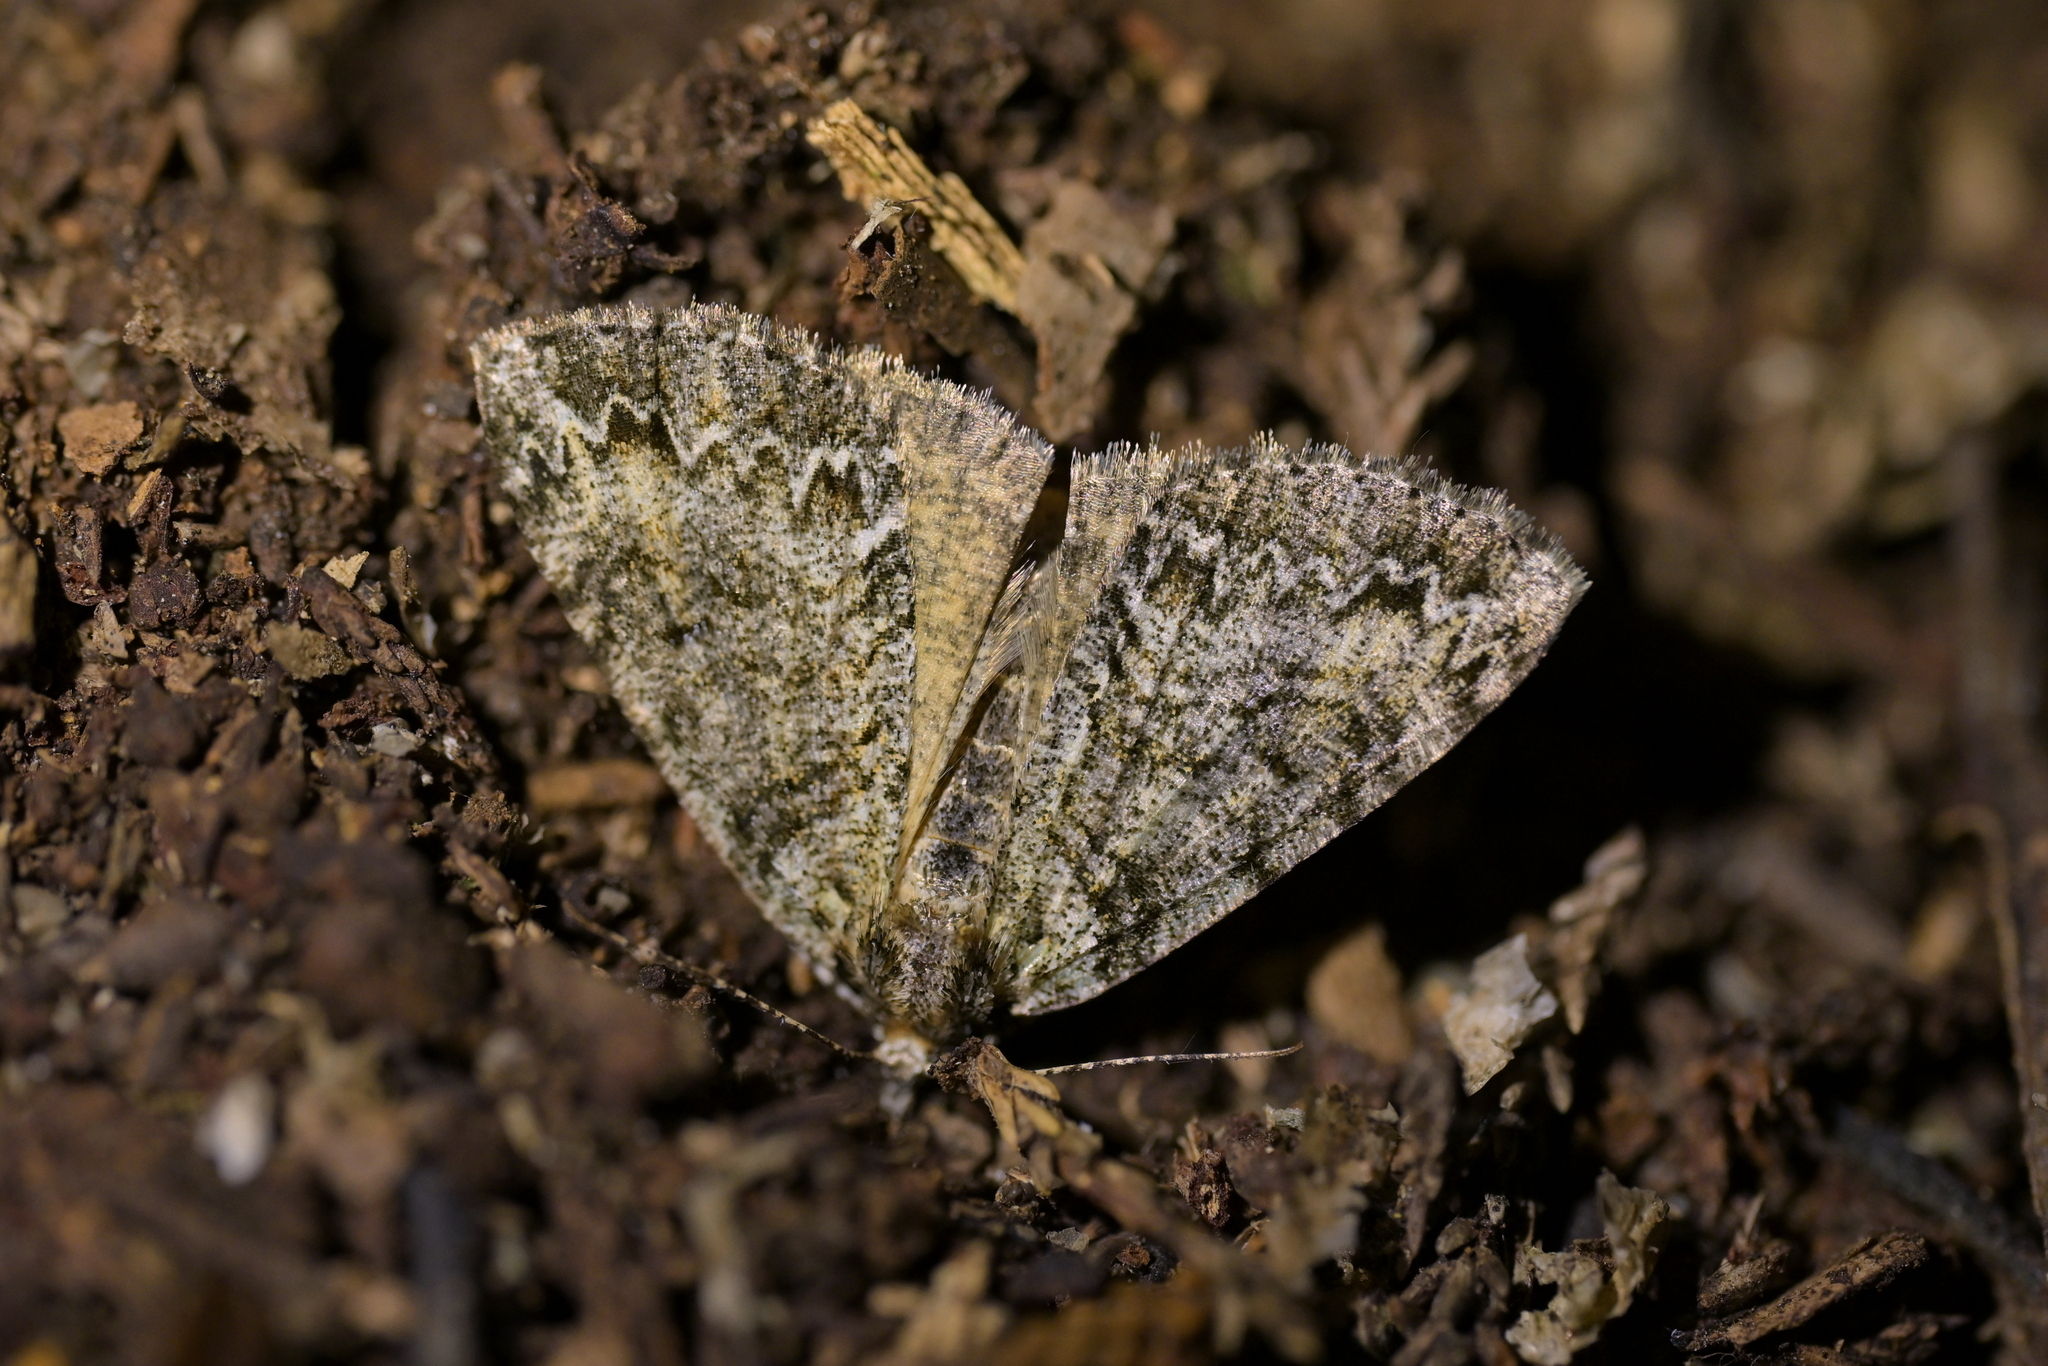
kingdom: Animalia
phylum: Arthropoda
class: Insecta
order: Lepidoptera
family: Geometridae
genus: Pseudocoremia
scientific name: Pseudocoremia suavis
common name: Common forest looper
